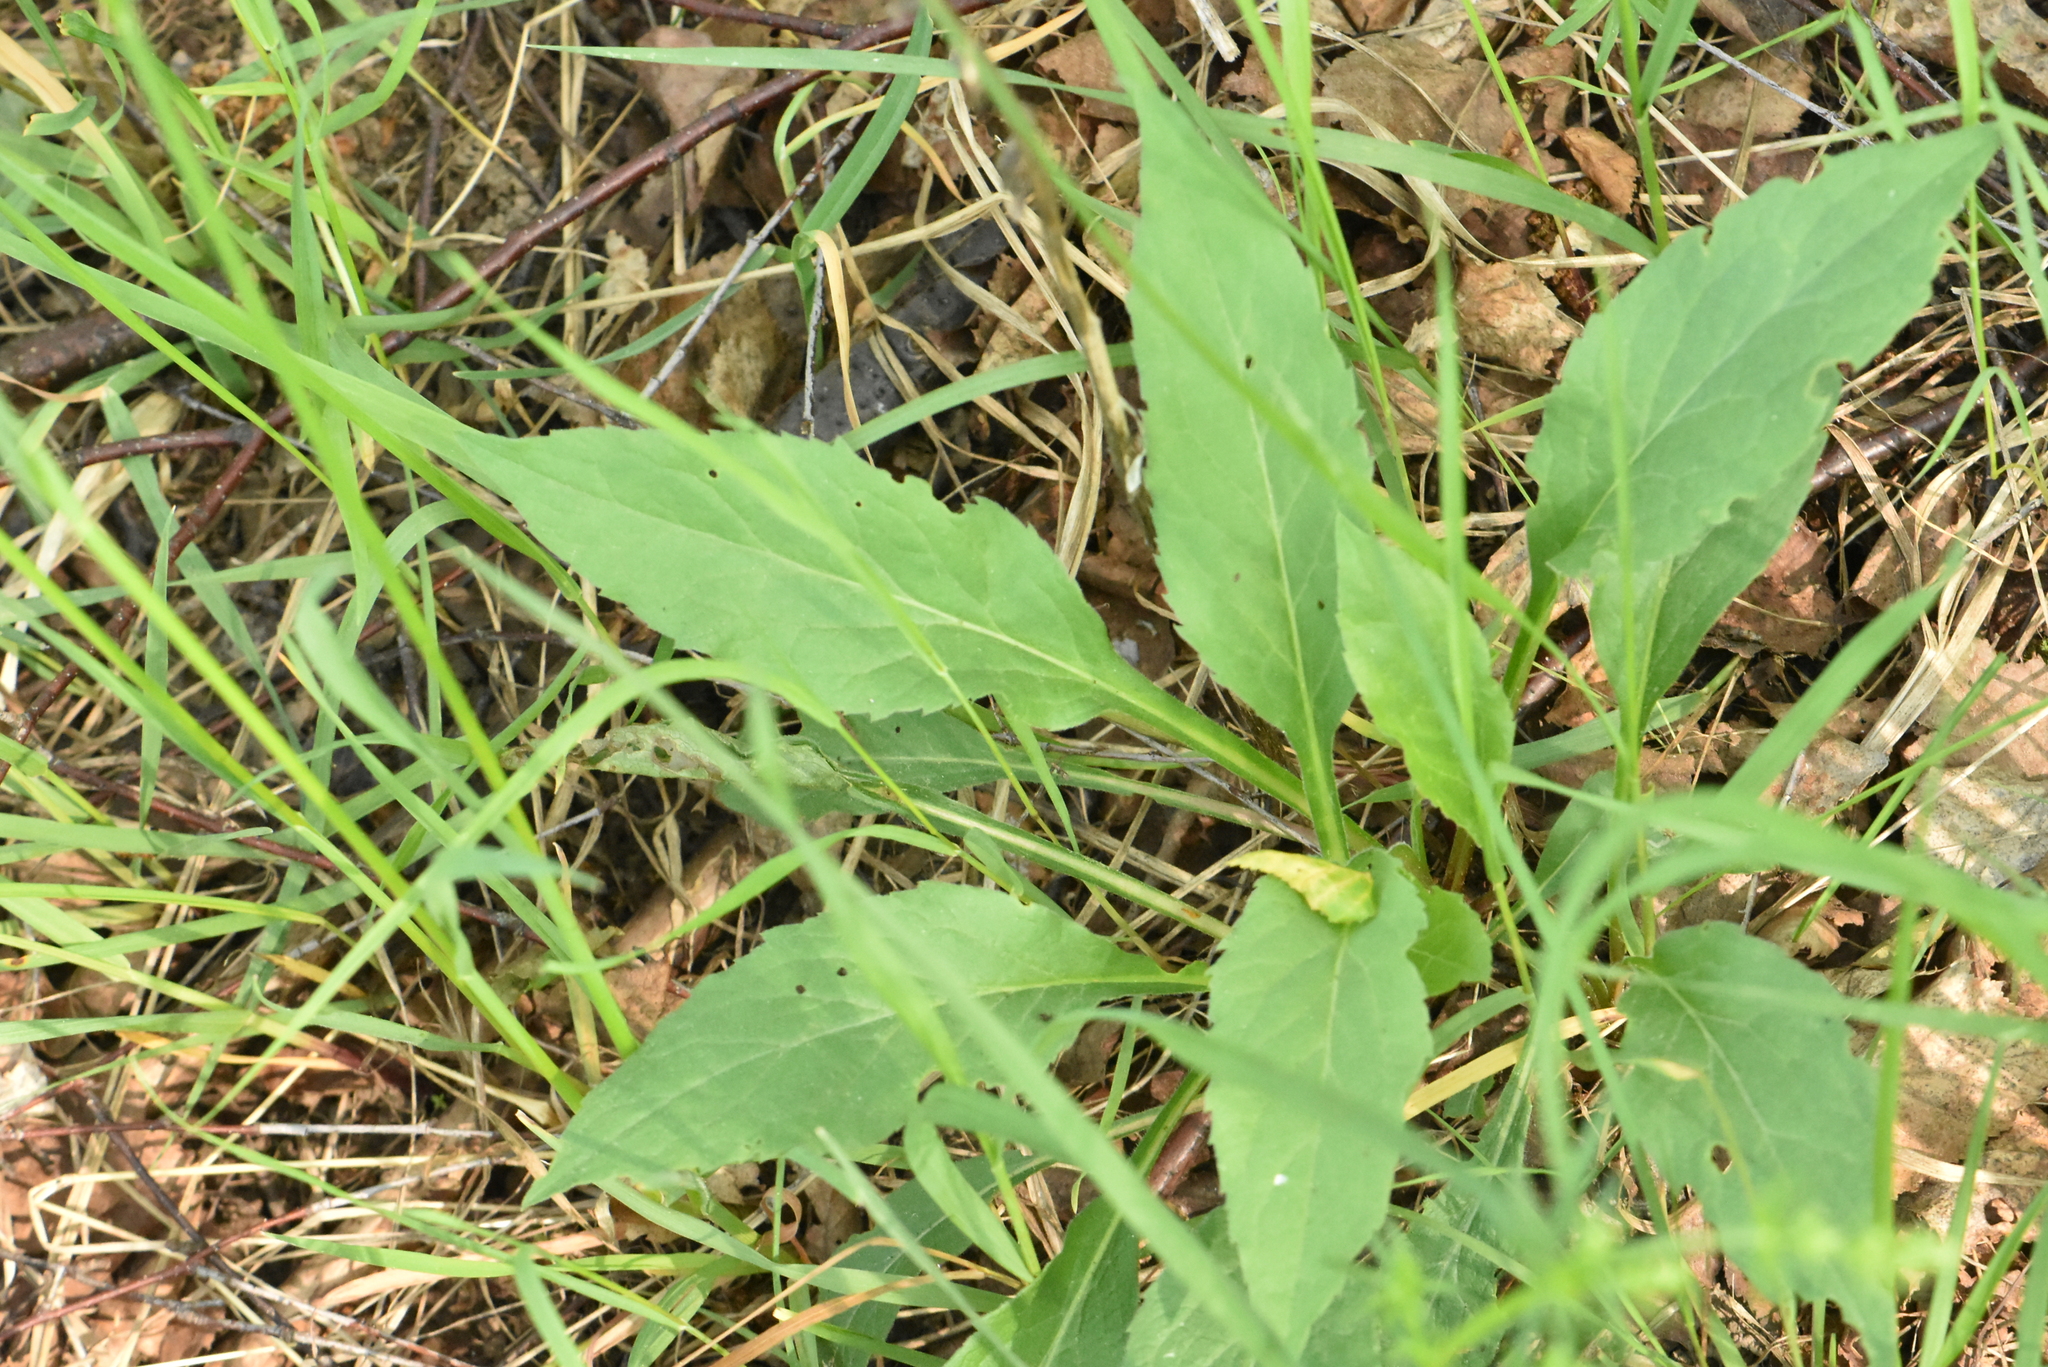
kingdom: Plantae
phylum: Tracheophyta
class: Magnoliopsida
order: Asterales
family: Asteraceae
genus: Solidago
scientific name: Solidago virgaurea
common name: Goldenrod
